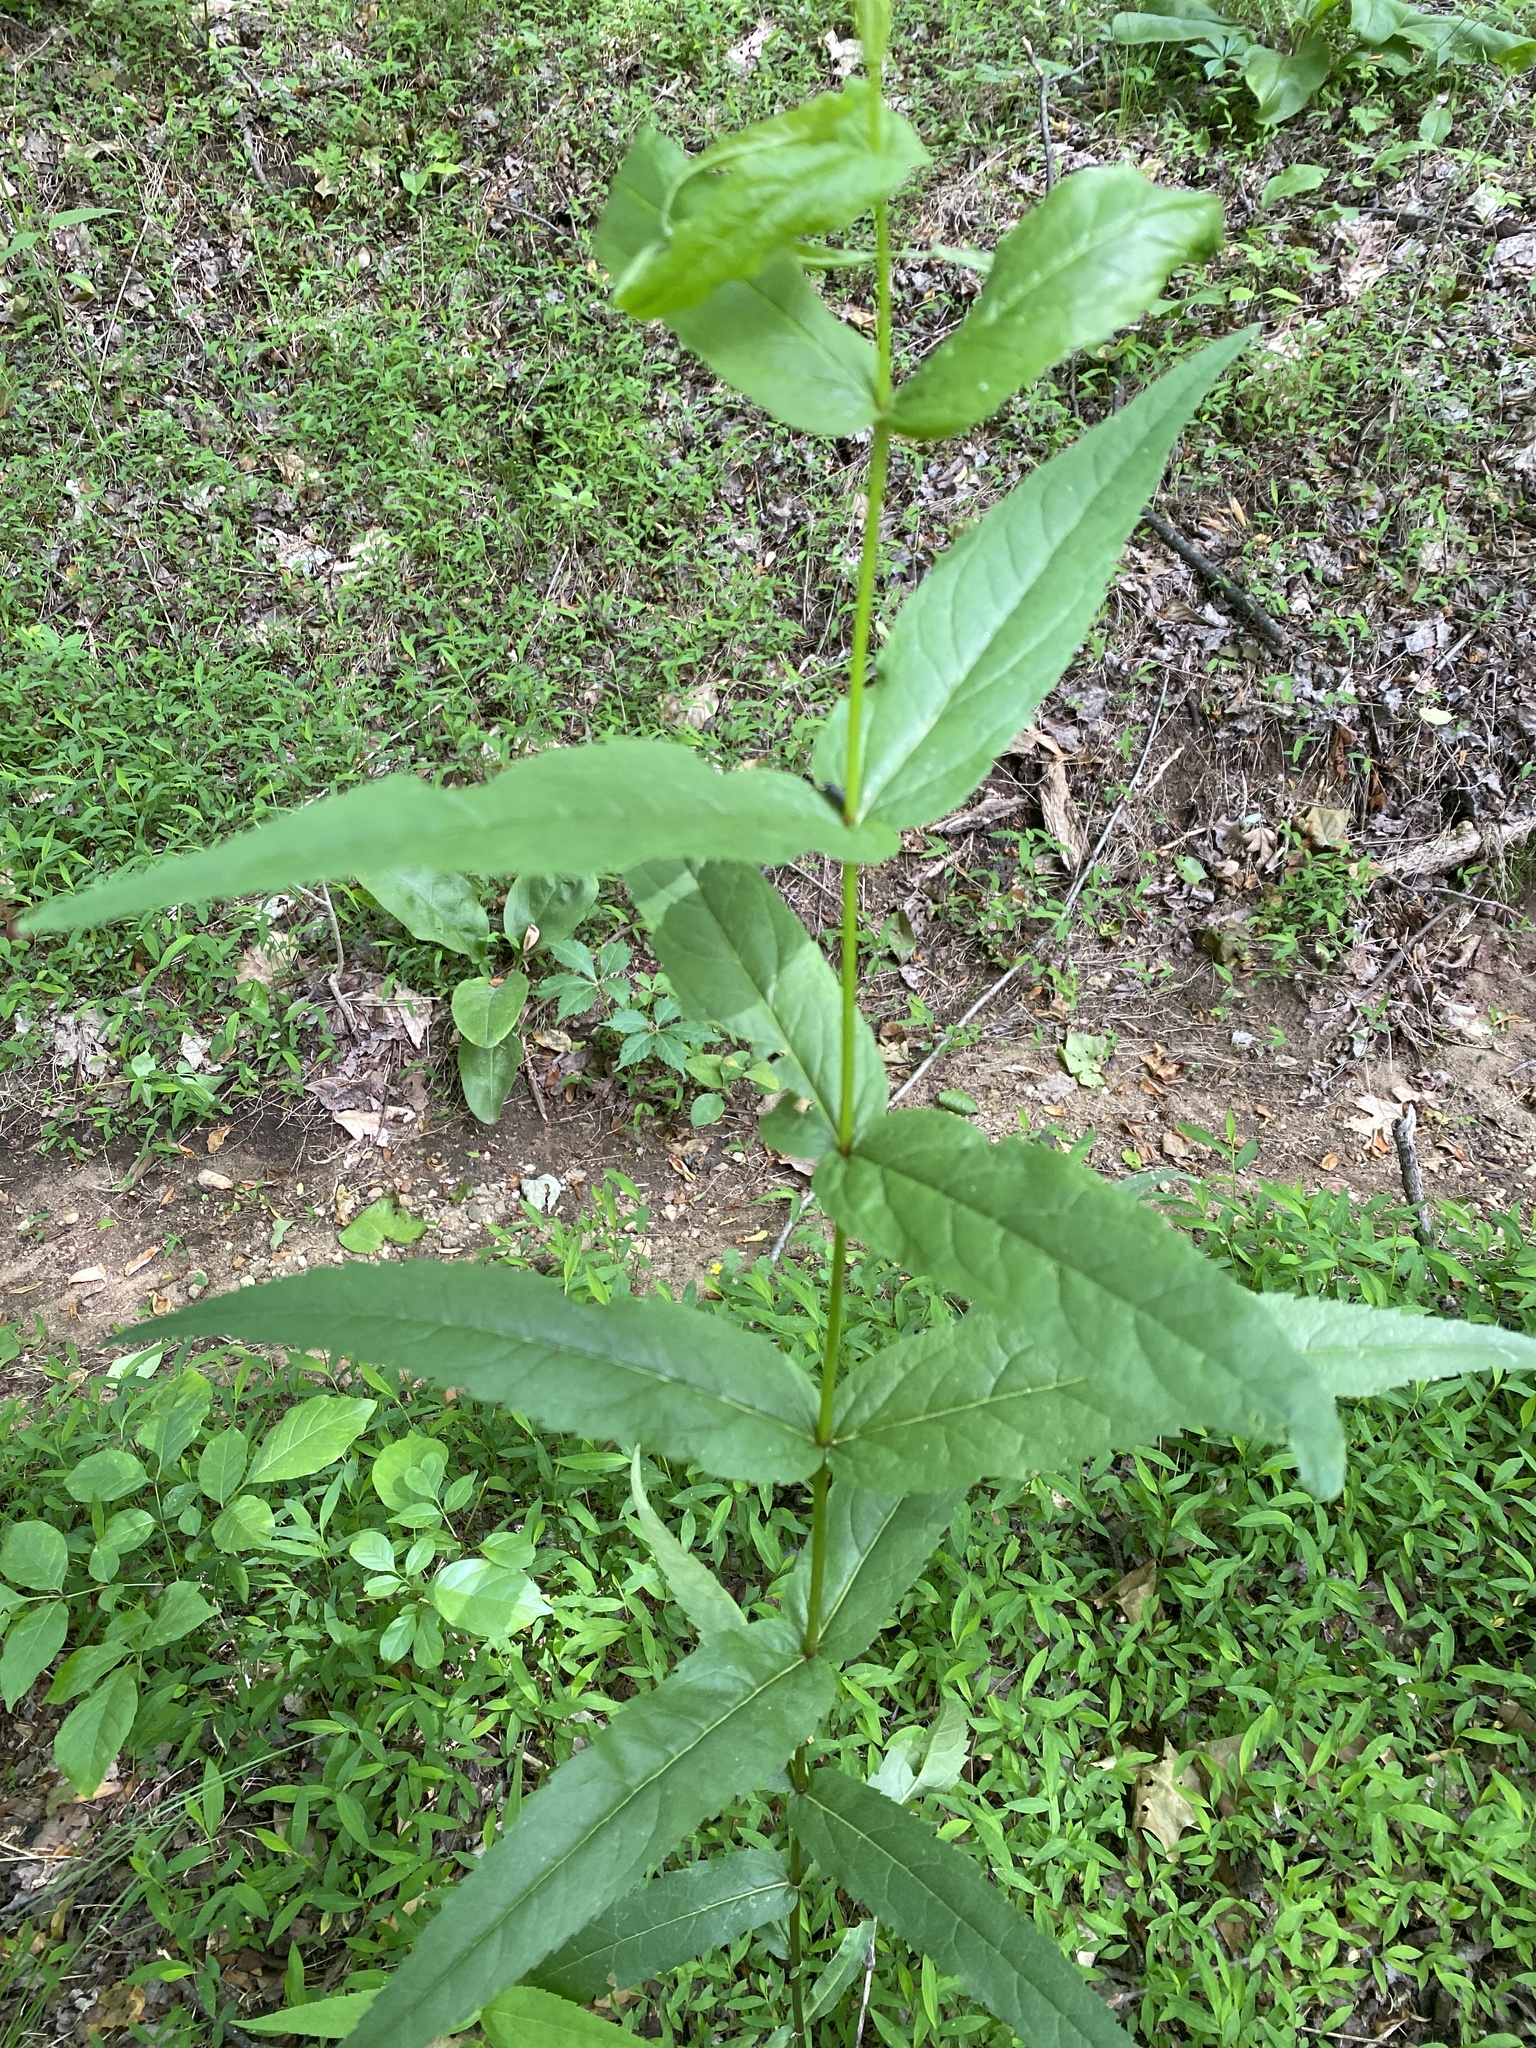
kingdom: Plantae
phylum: Tracheophyta
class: Magnoliopsida
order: Asterales
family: Asteraceae
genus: Eupatorium
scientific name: Eupatorium sessilifolium
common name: Upland boneset
